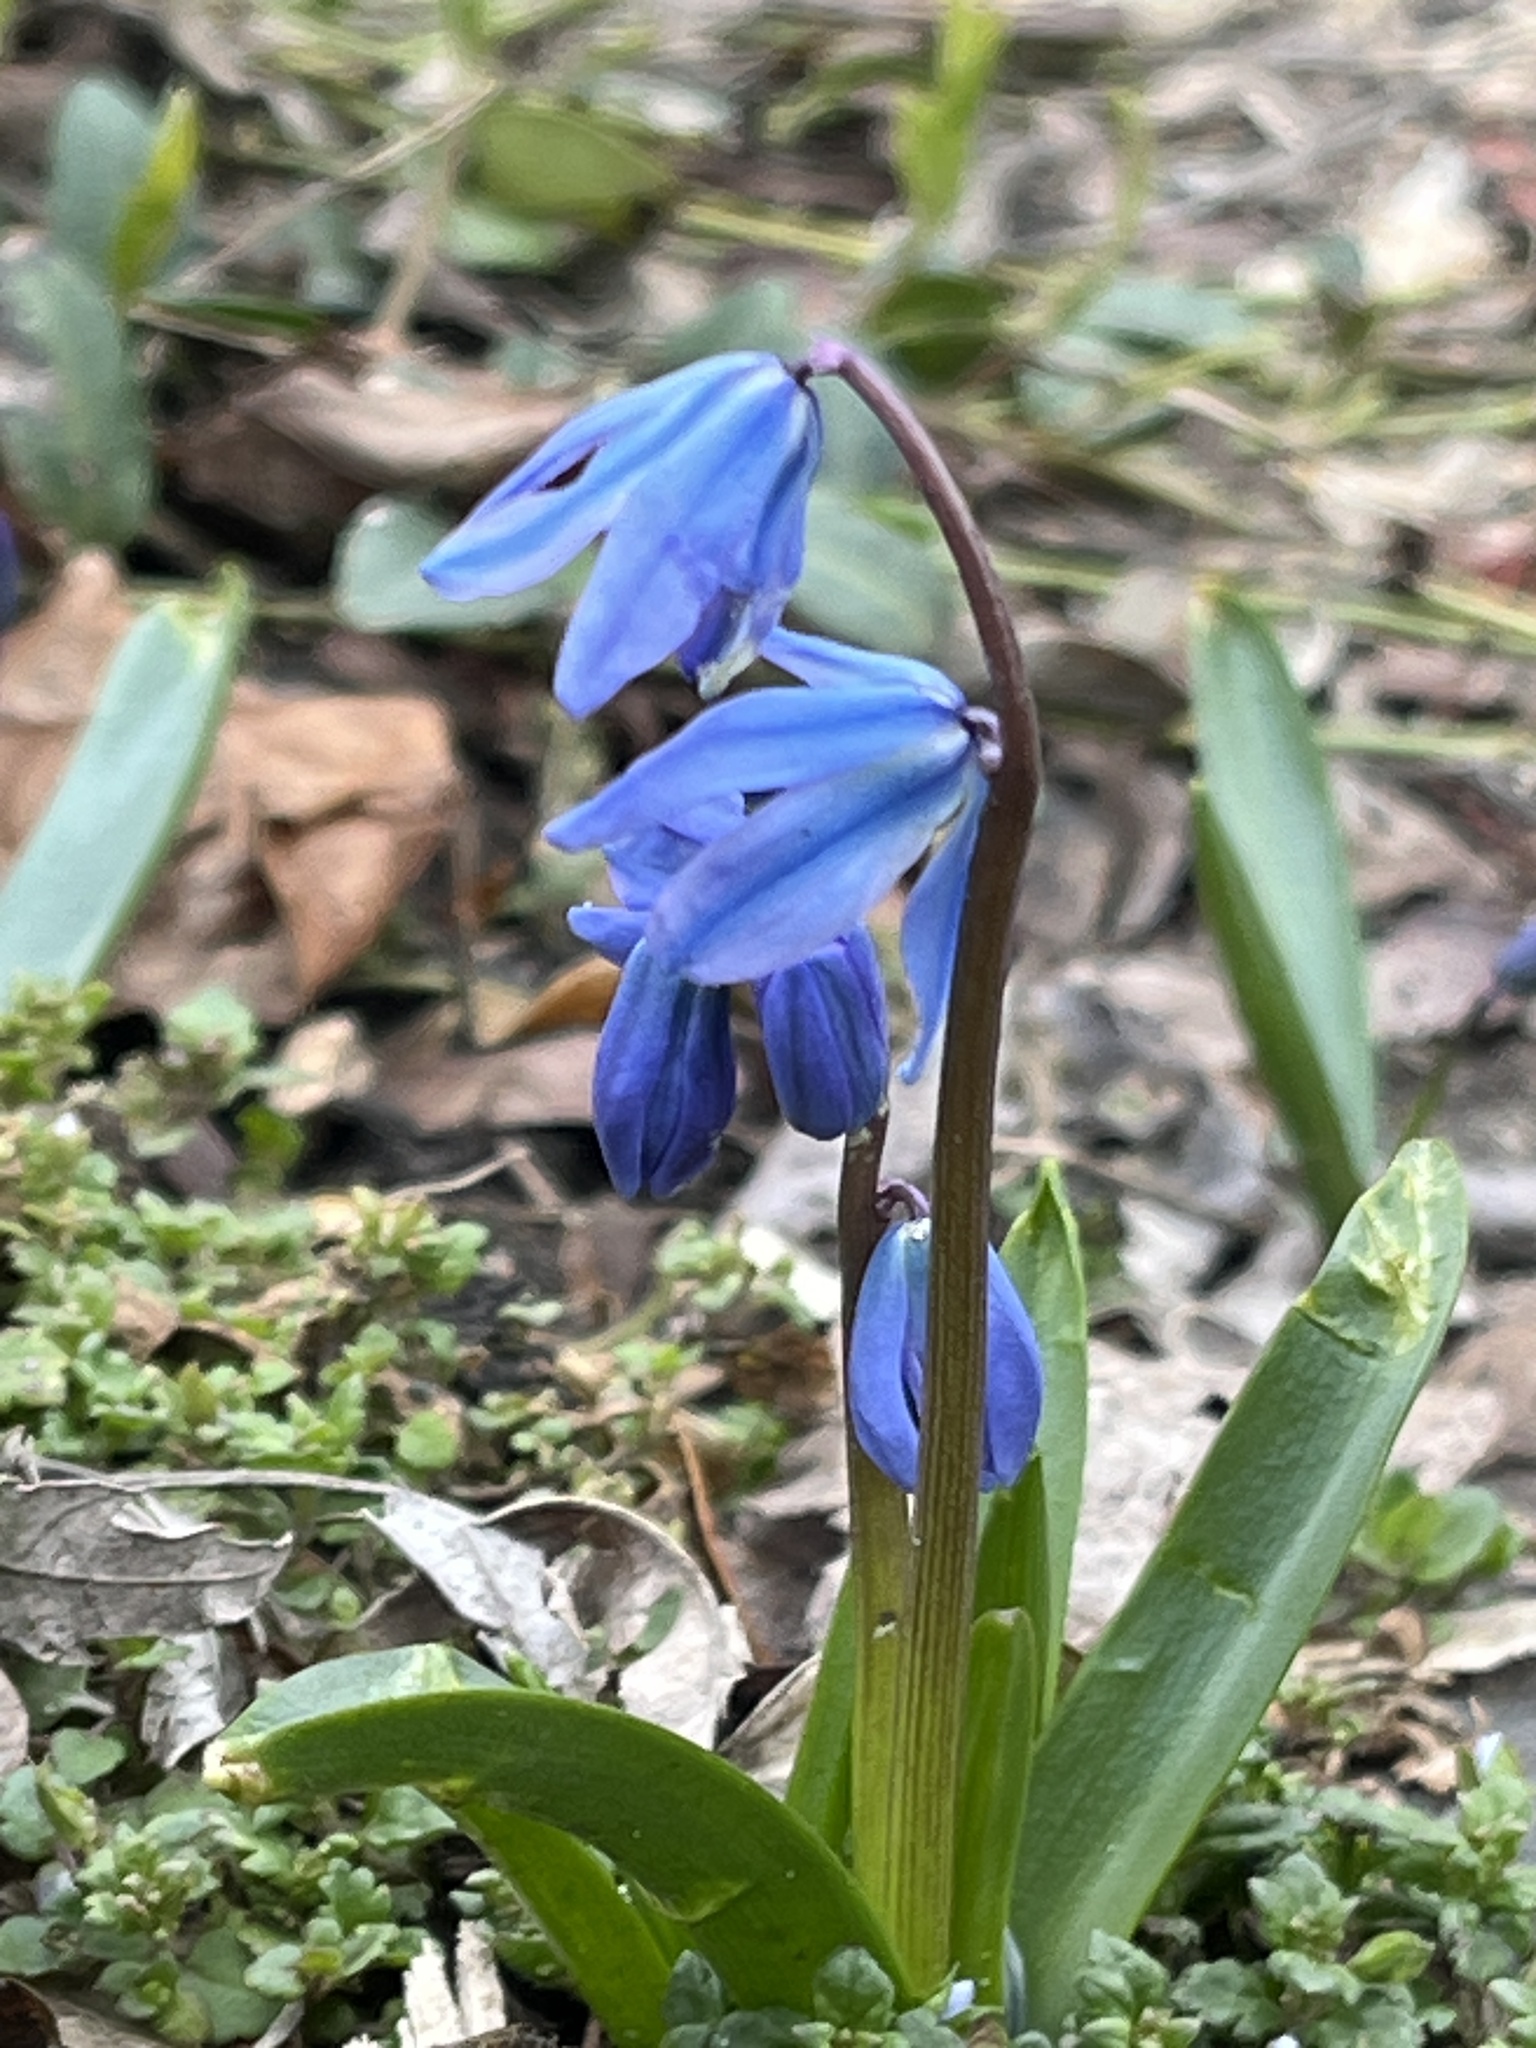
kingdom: Plantae
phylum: Tracheophyta
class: Liliopsida
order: Asparagales
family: Asparagaceae
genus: Scilla
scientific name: Scilla siberica
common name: Siberian squill
